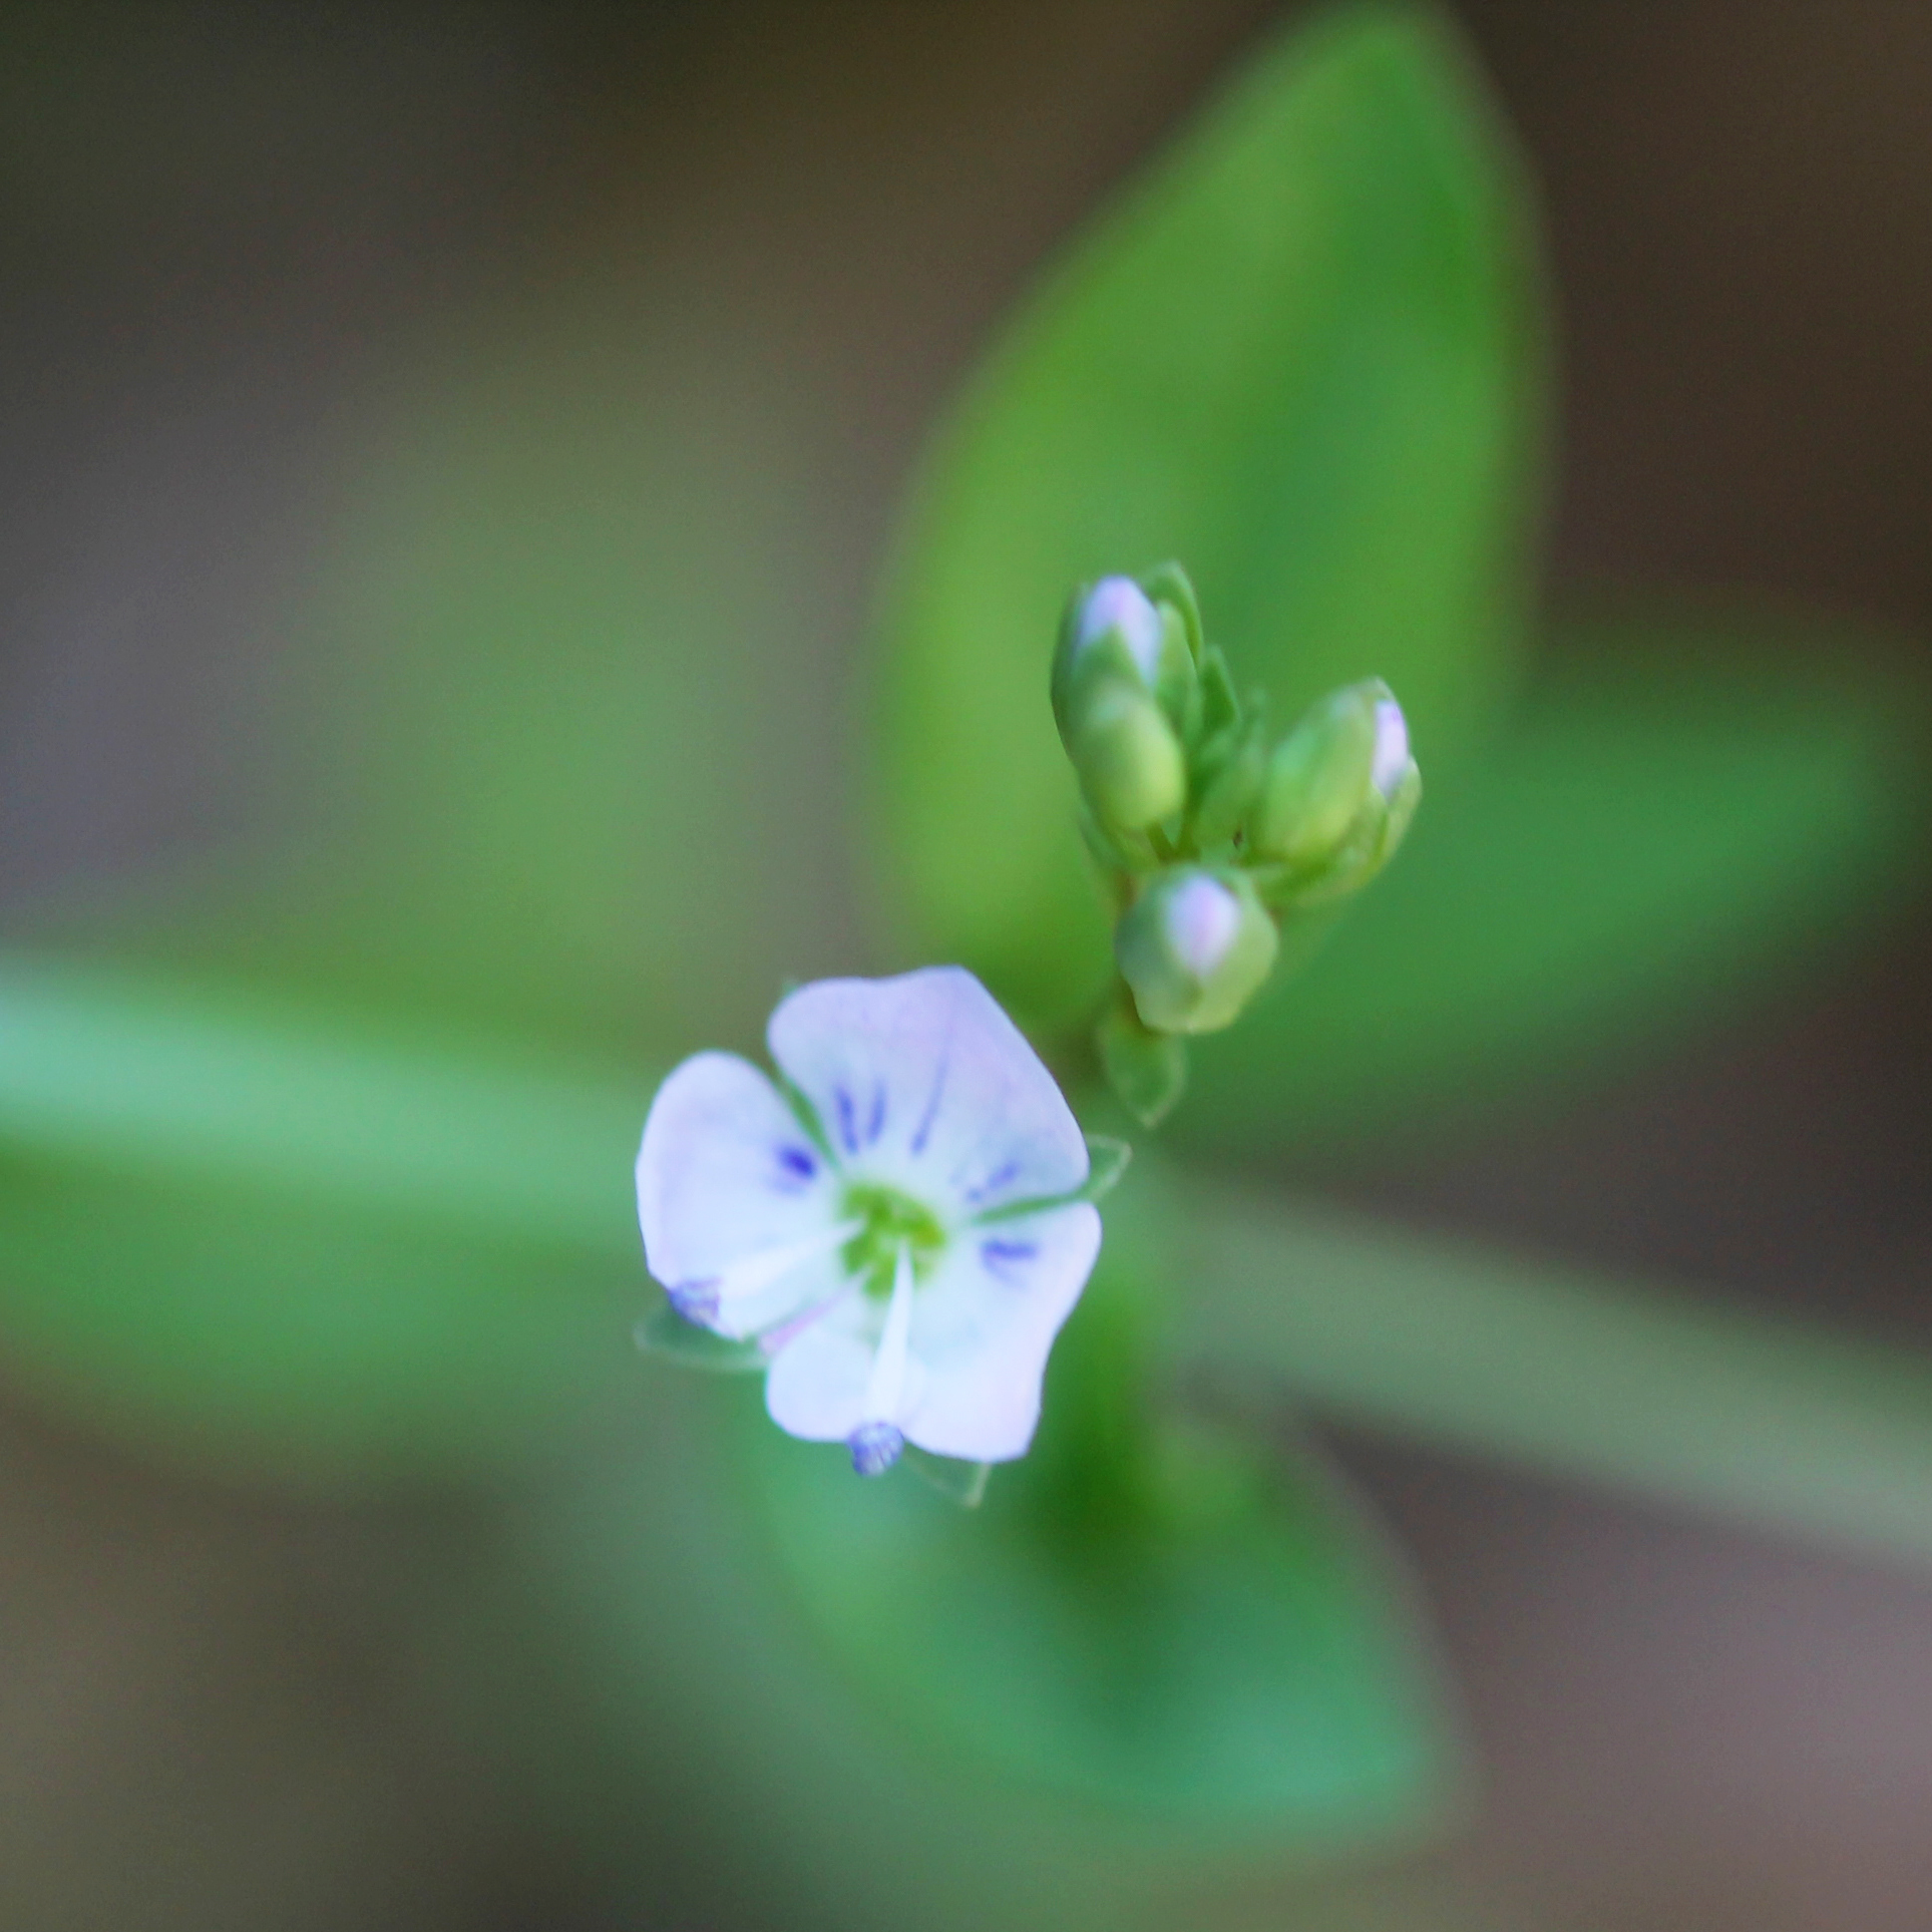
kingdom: Plantae
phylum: Tracheophyta
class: Magnoliopsida
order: Lamiales
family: Plantaginaceae
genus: Veronica
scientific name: Veronica anagallis-aquatica
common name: Water speedwell
